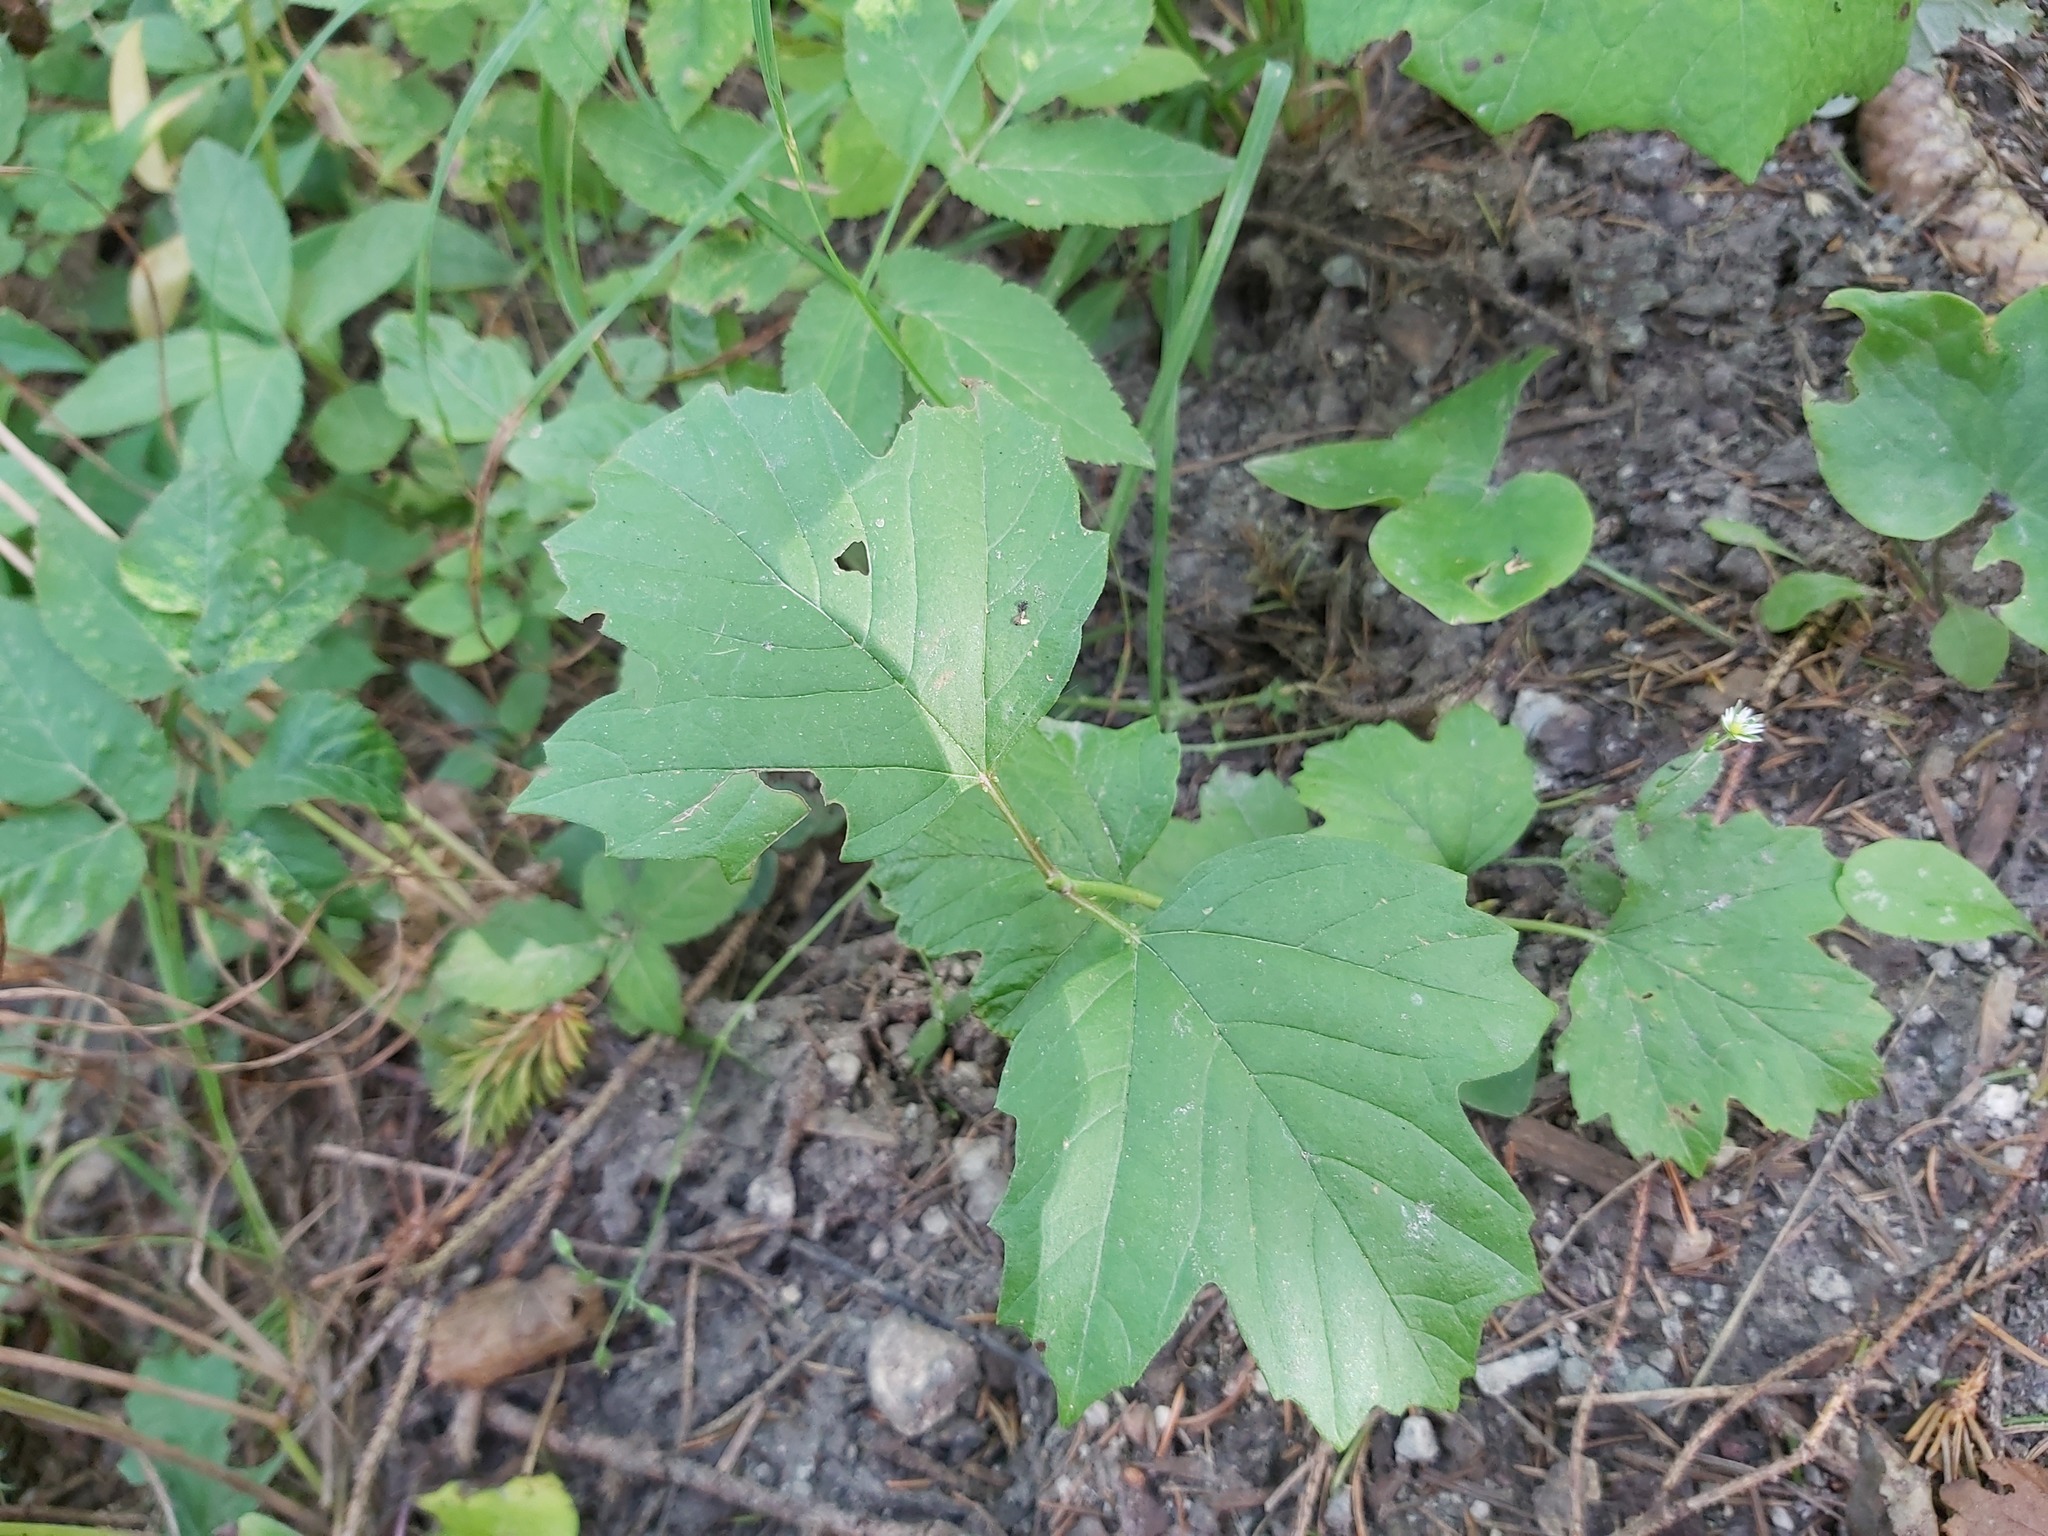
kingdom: Plantae
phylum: Tracheophyta
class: Magnoliopsida
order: Dipsacales
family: Viburnaceae
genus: Viburnum
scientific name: Viburnum opulus
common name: Guelder-rose
